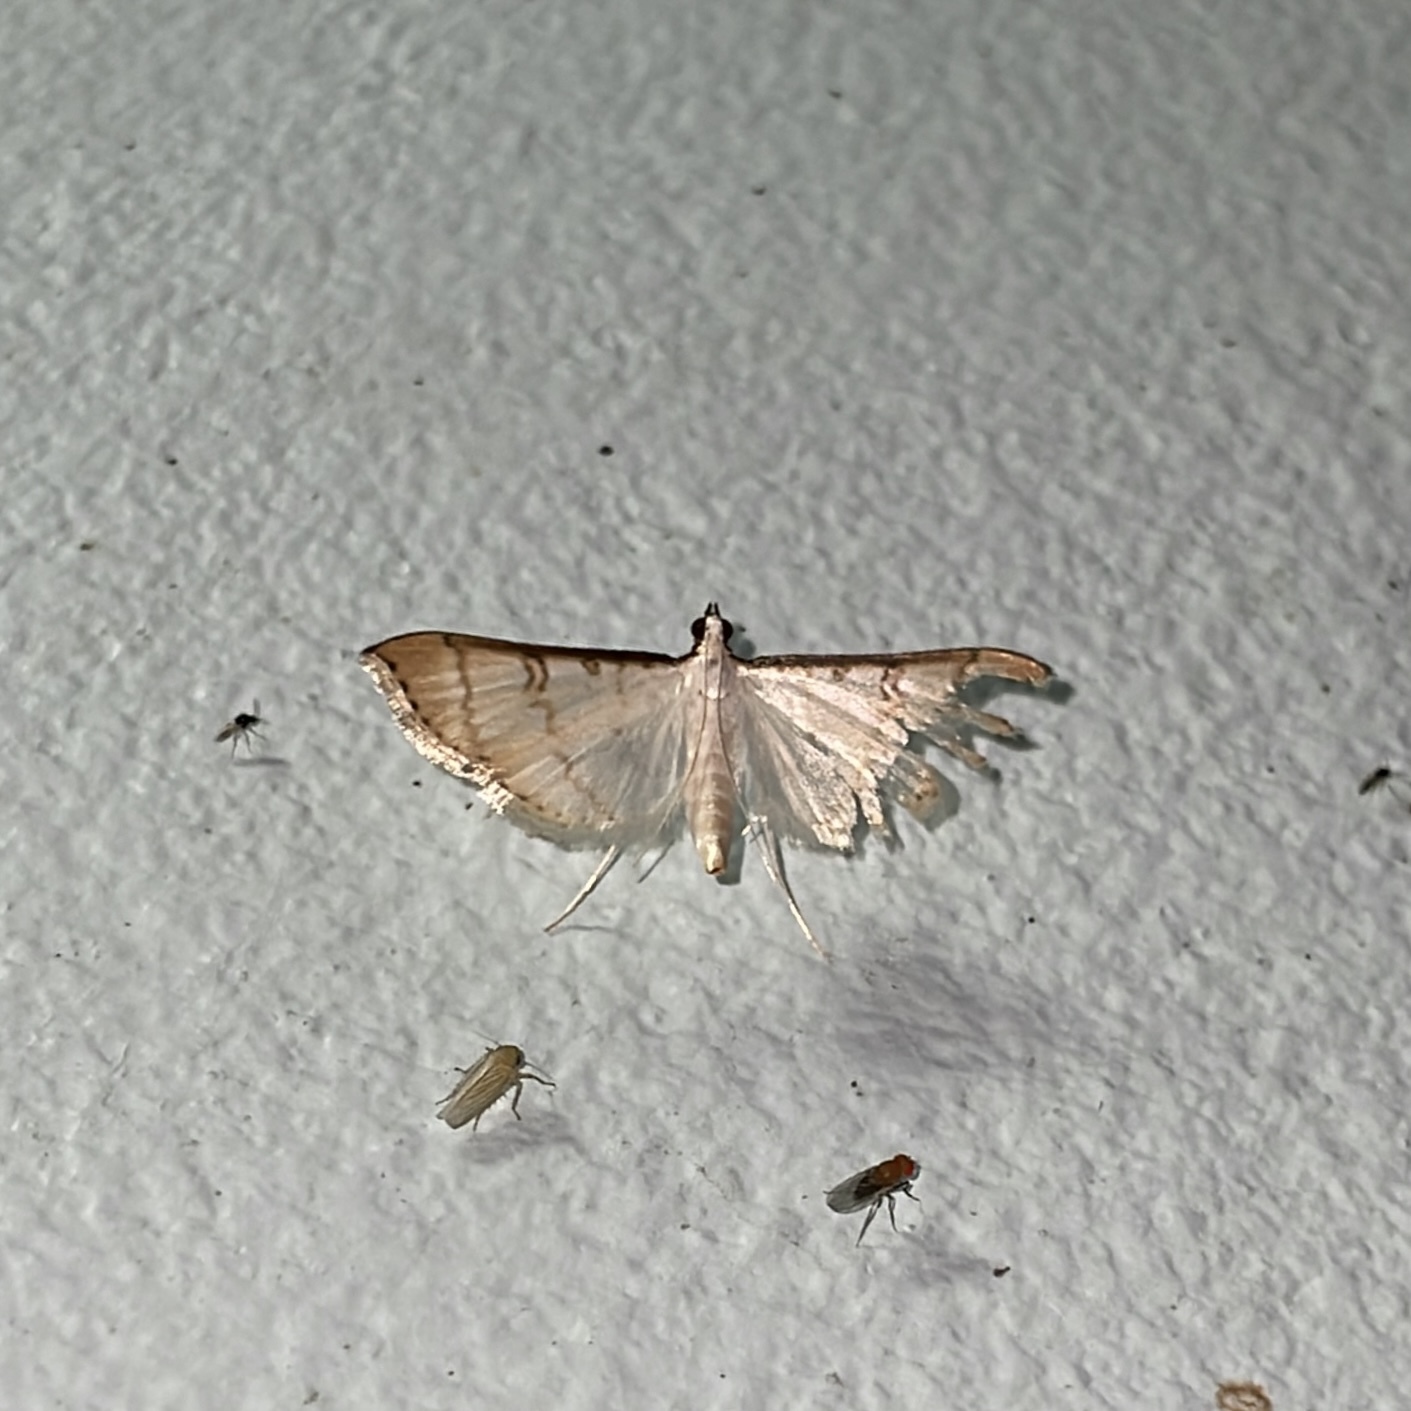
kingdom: Animalia
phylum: Arthropoda
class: Insecta
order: Lepidoptera
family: Crambidae
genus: Stenia
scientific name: Stenia colubralis
